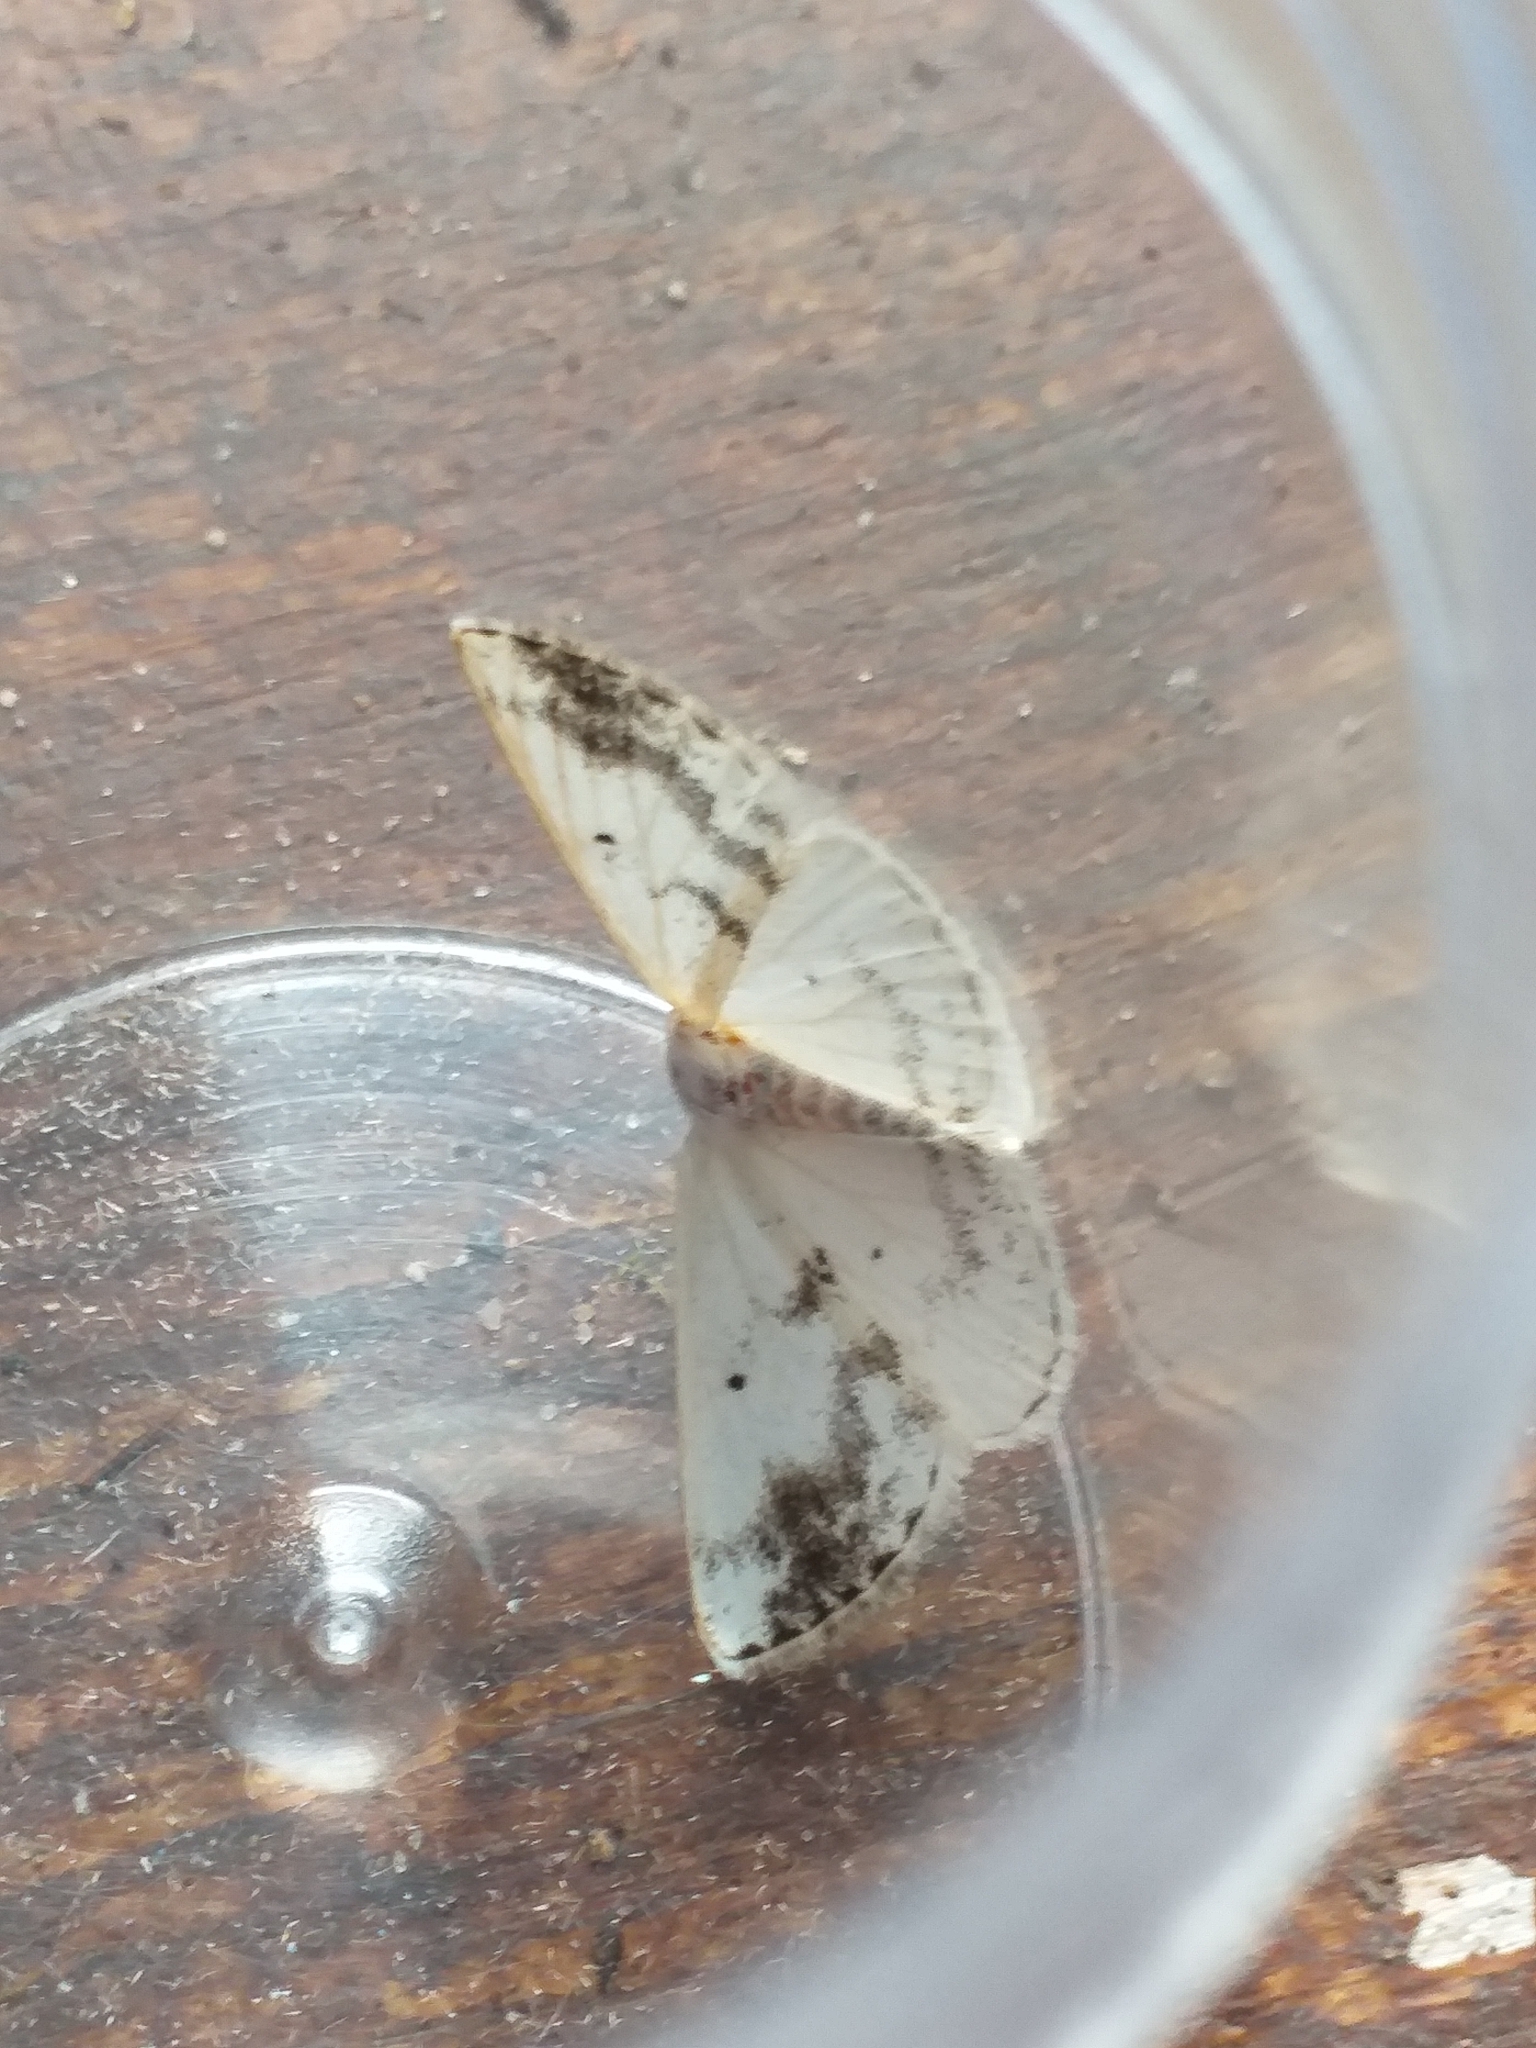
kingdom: Animalia
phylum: Arthropoda
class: Insecta
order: Lepidoptera
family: Geometridae
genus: Lomographa
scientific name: Lomographa temerata
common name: Clouded silver
